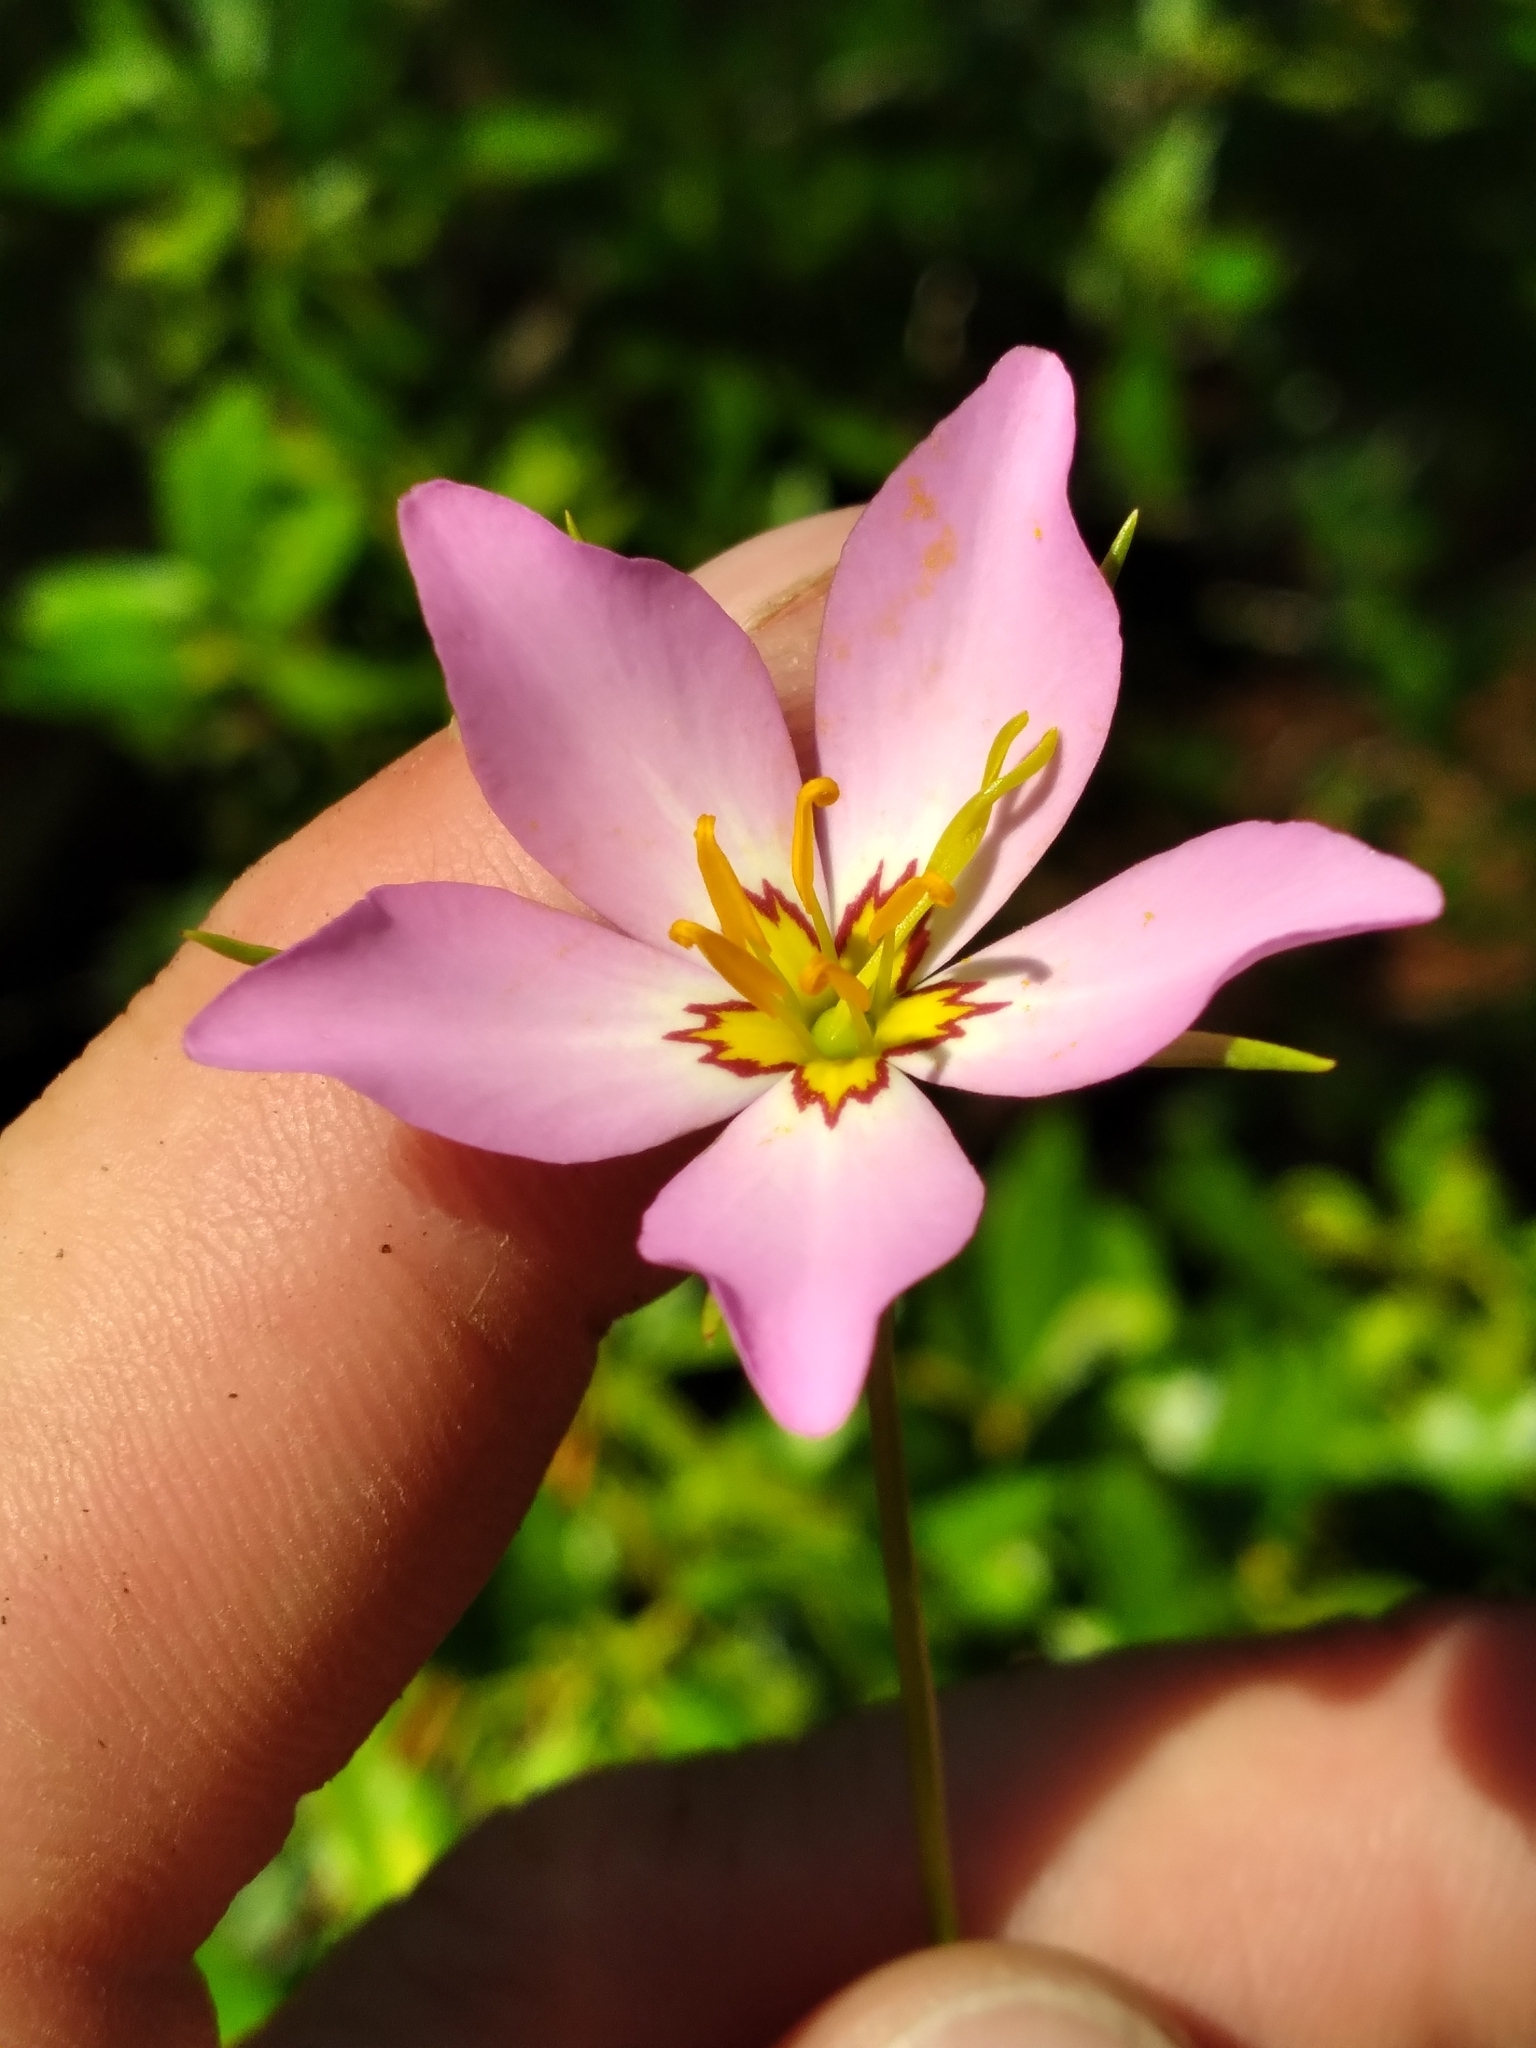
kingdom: Plantae
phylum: Tracheophyta
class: Magnoliopsida
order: Gentianales
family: Gentianaceae
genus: Sabatia
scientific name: Sabatia stellaris
